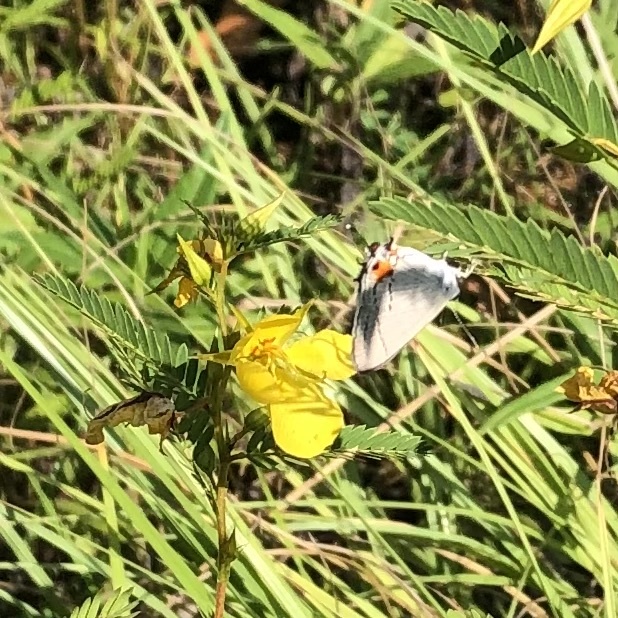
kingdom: Animalia
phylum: Arthropoda
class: Insecta
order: Lepidoptera
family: Lycaenidae
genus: Strymon
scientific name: Strymon melinus
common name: Gray hairstreak
